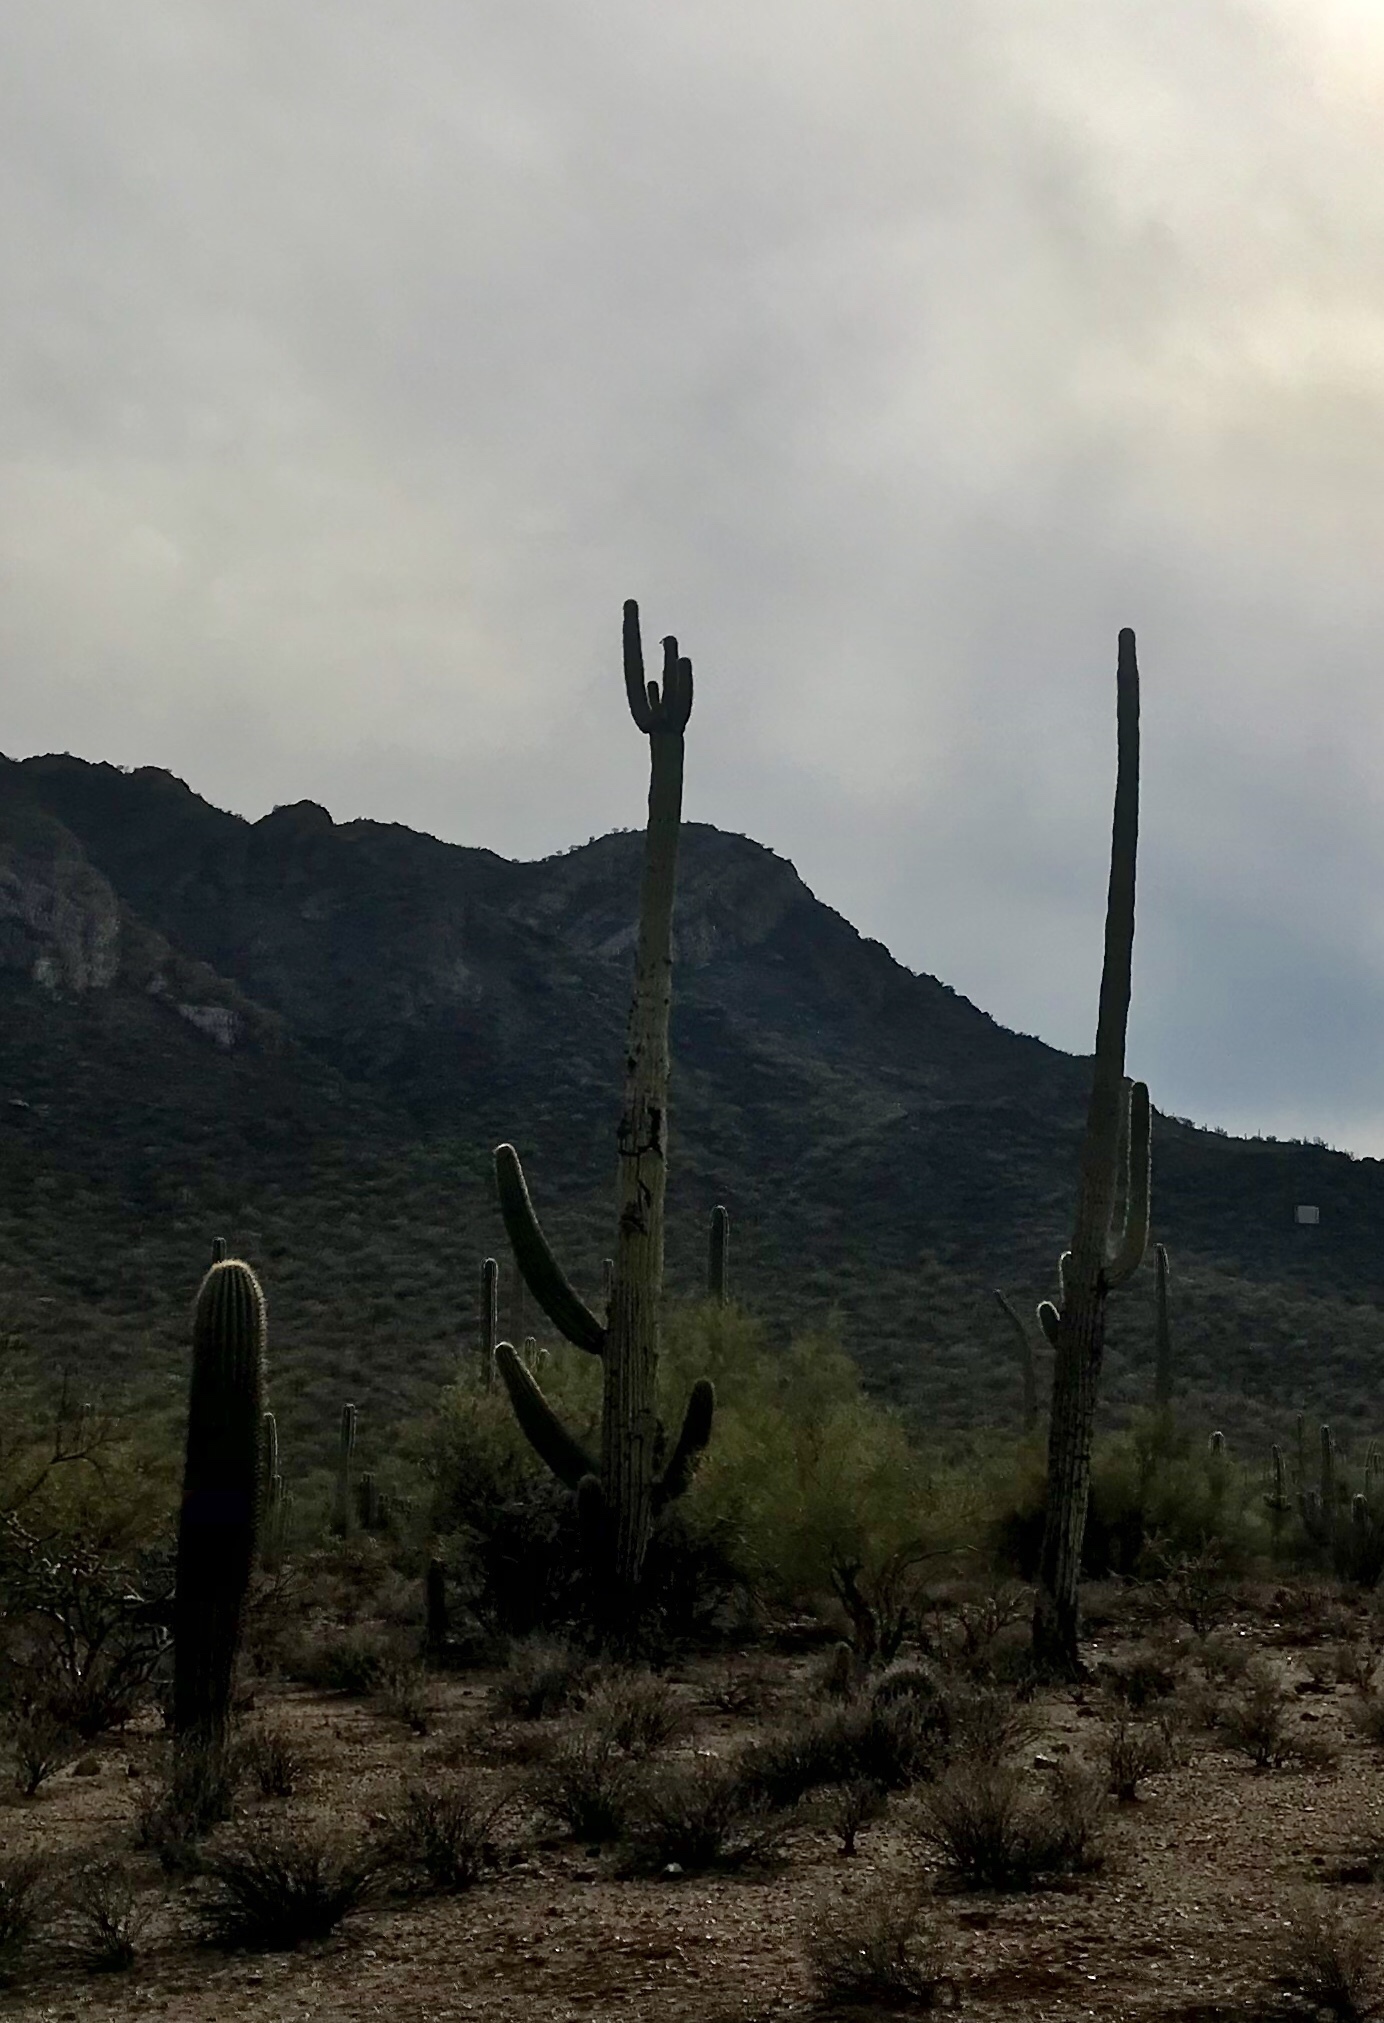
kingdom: Plantae
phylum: Tracheophyta
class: Magnoliopsida
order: Caryophyllales
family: Cactaceae
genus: Carnegiea
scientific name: Carnegiea gigantea
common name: Saguaro
